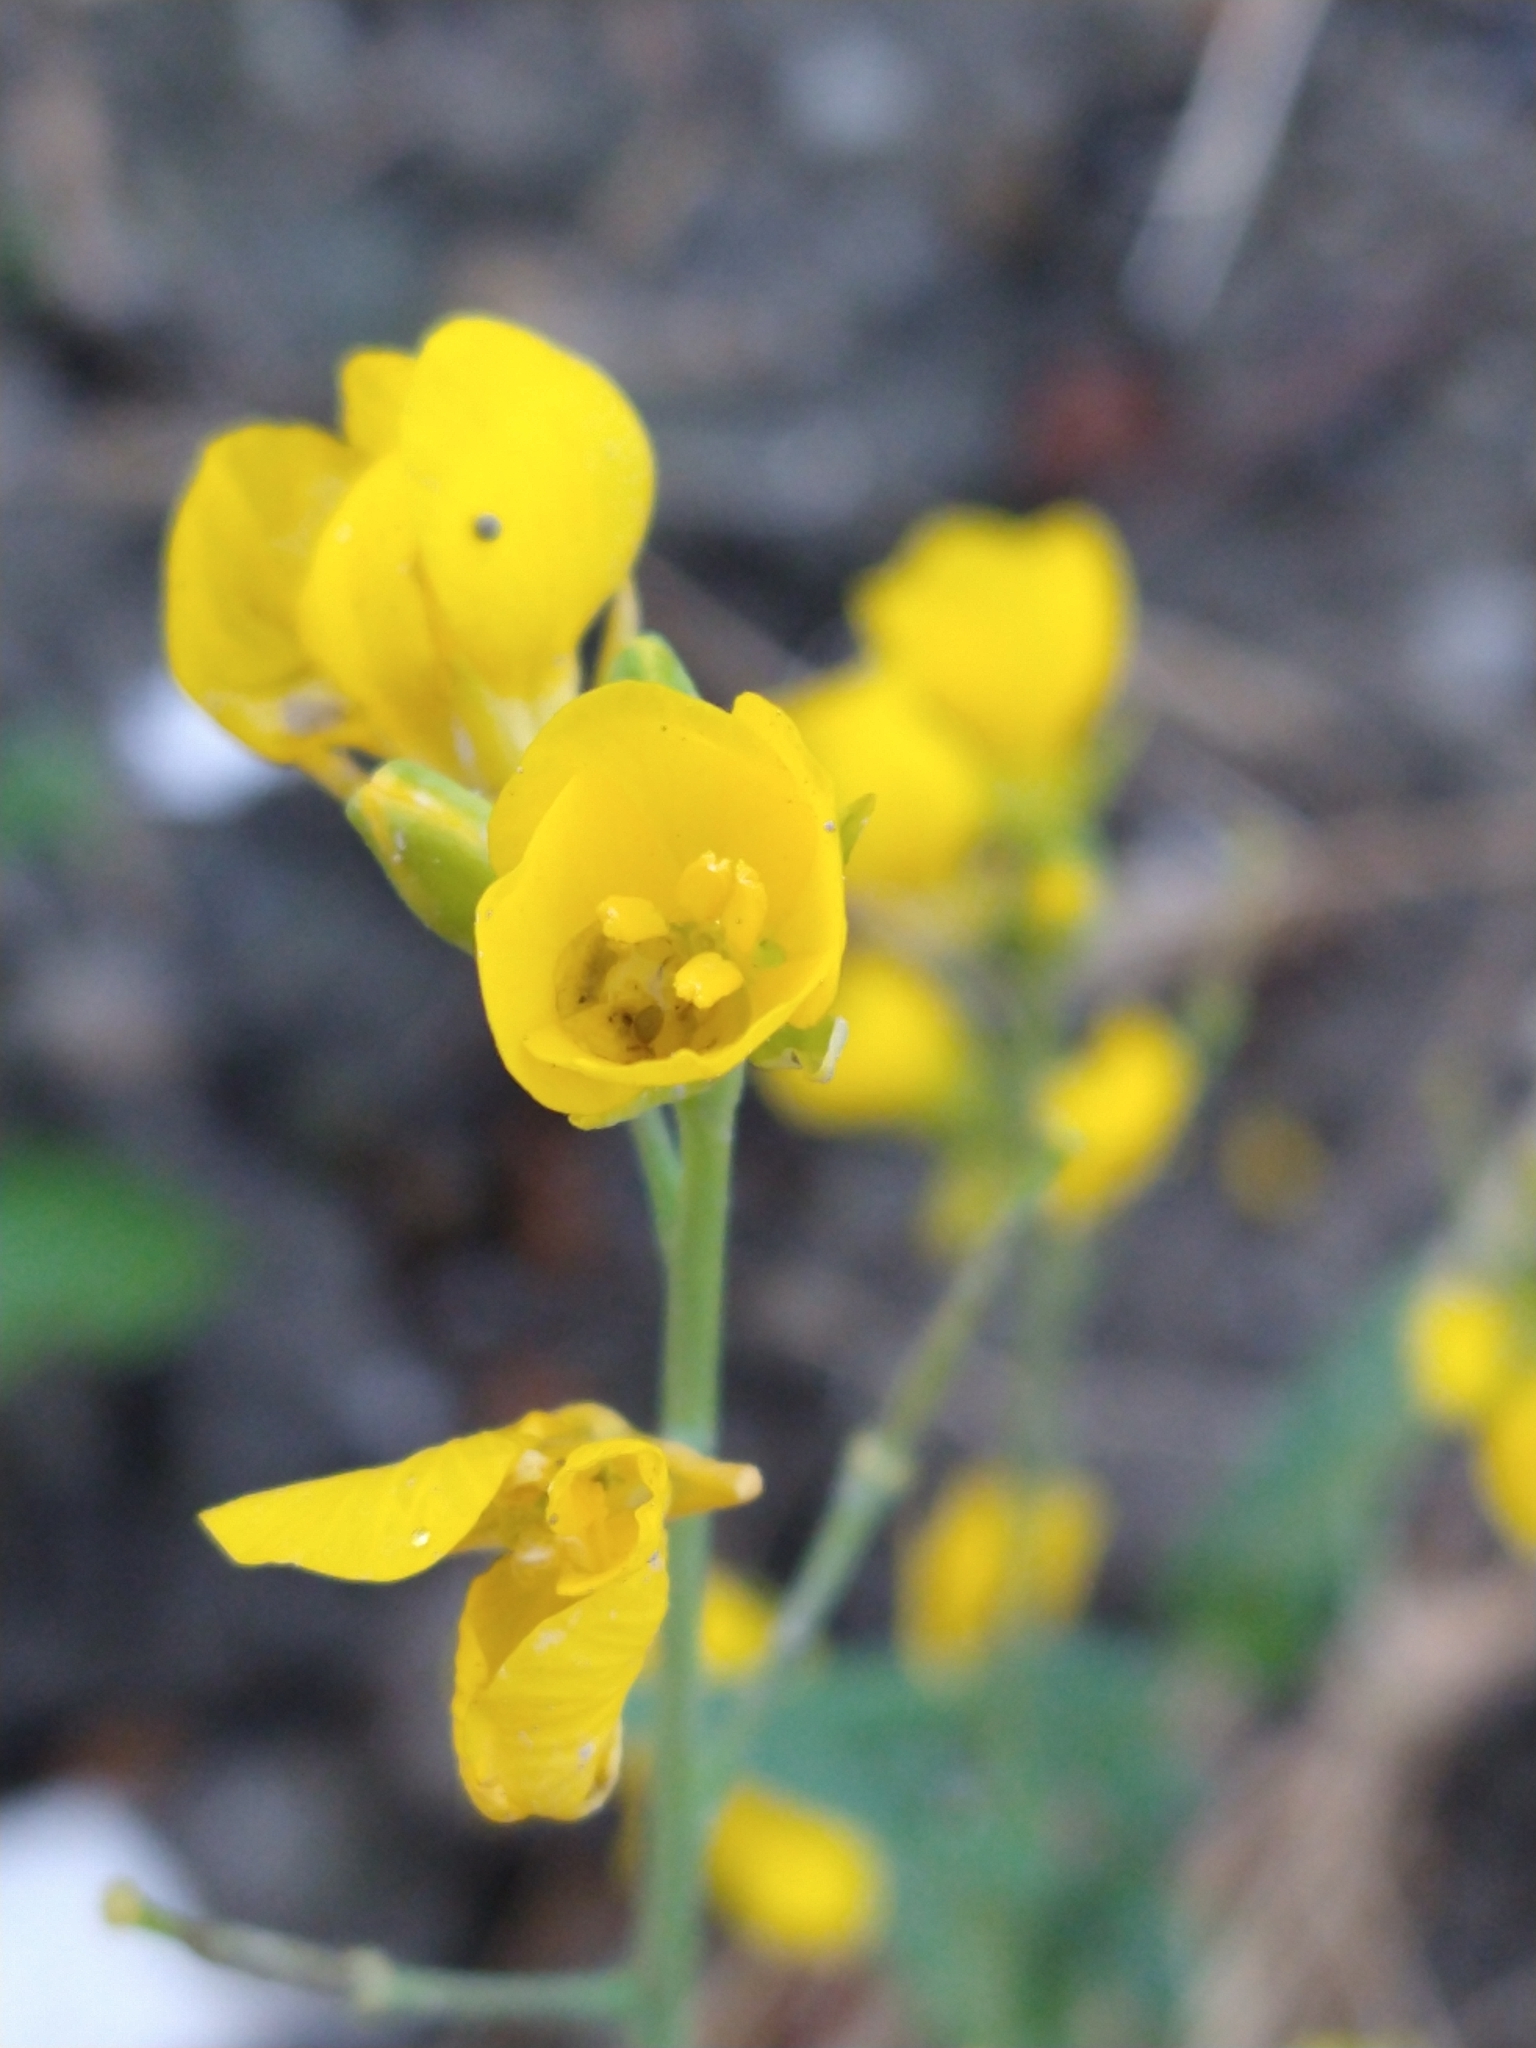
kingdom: Plantae
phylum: Tracheophyta
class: Magnoliopsida
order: Brassicales
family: Brassicaceae
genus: Brassica
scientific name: Brassica rapa
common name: Field mustard
